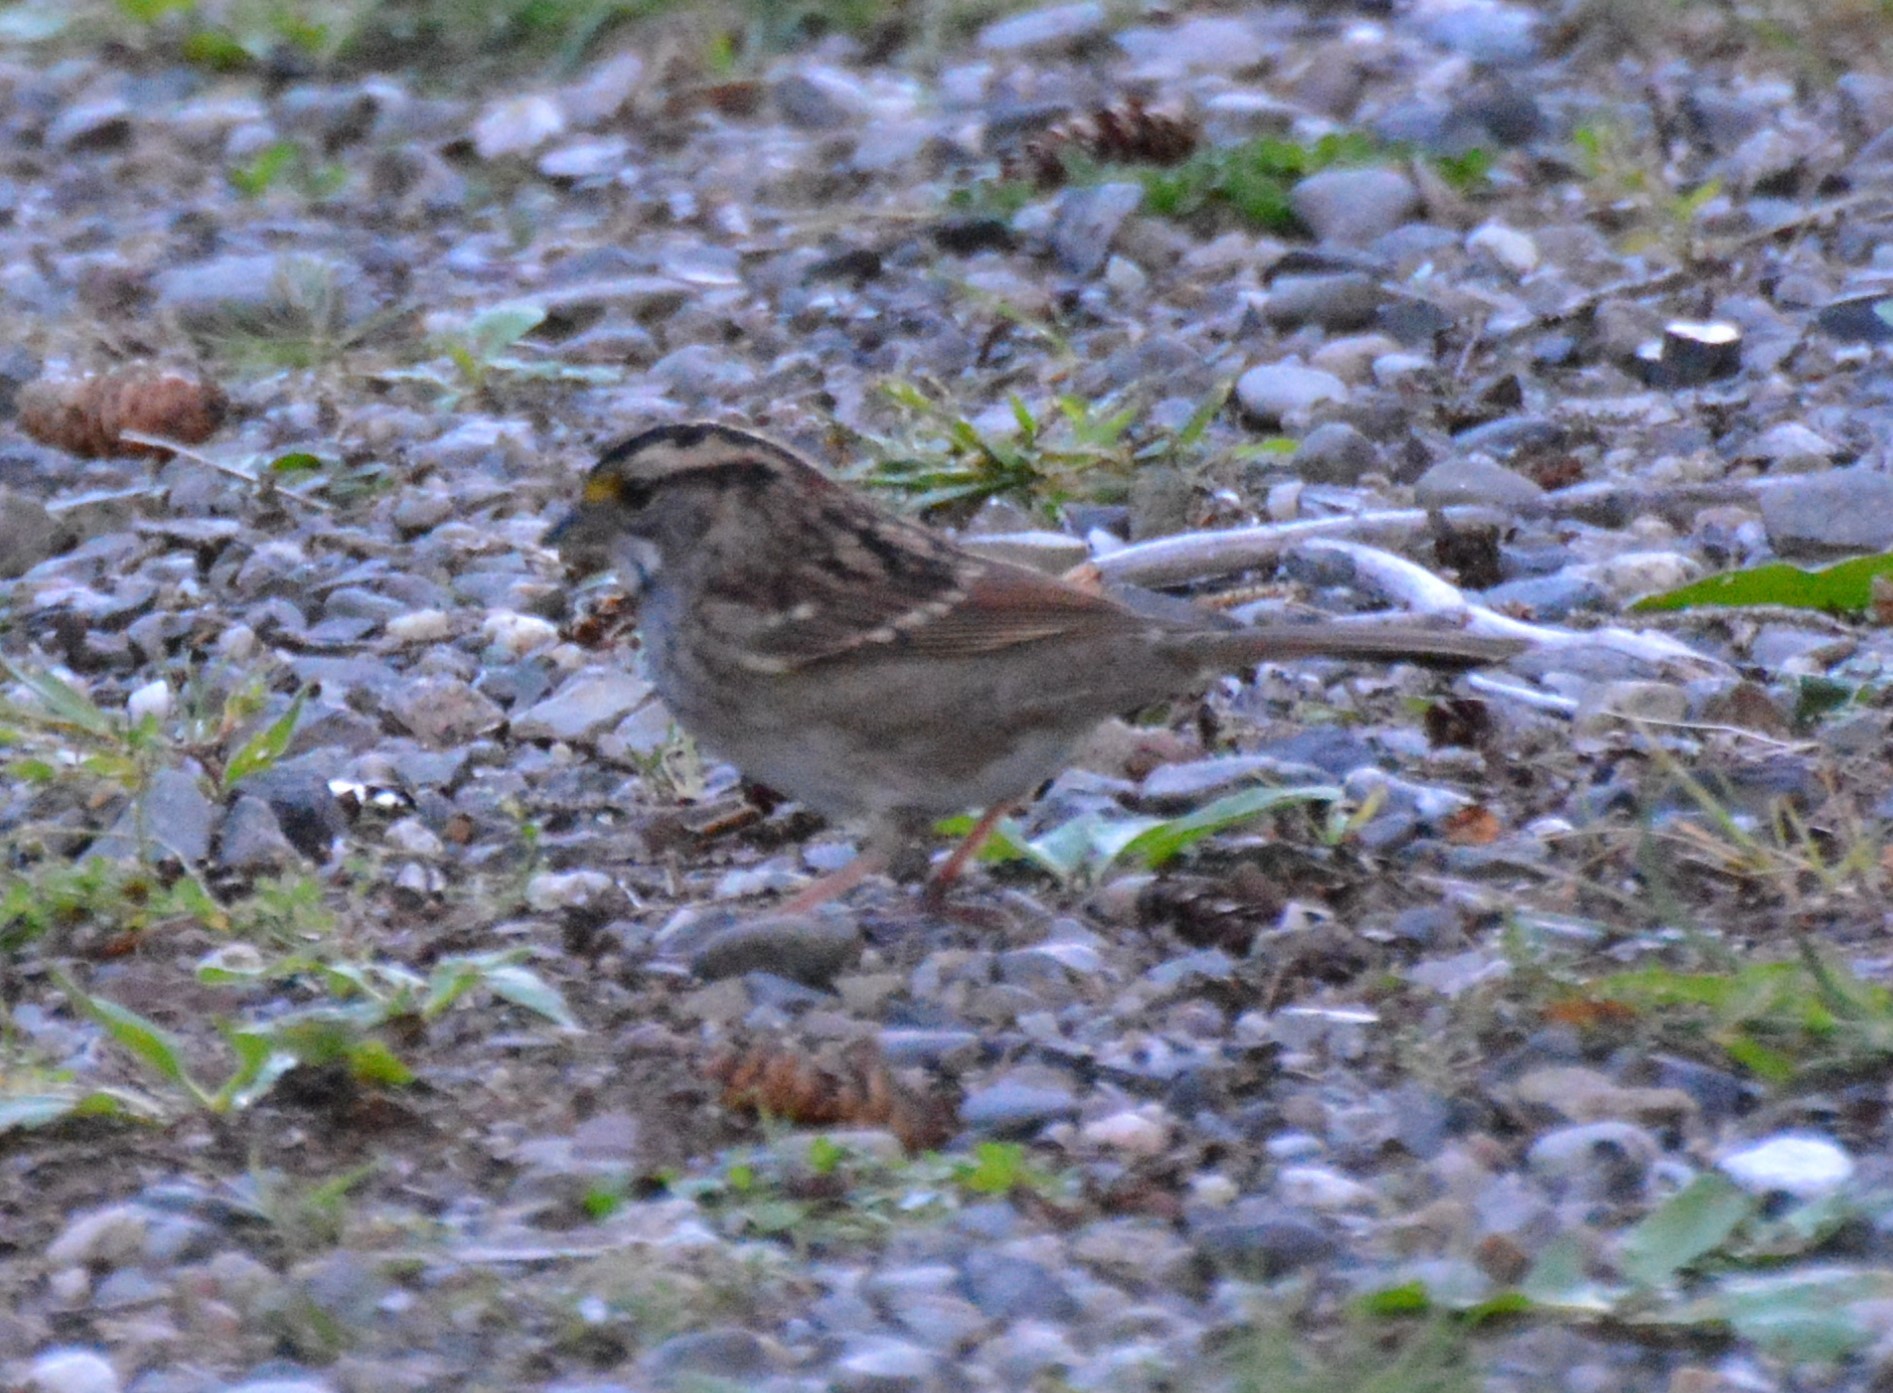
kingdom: Animalia
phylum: Chordata
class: Aves
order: Passeriformes
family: Passerellidae
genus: Zonotrichia
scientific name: Zonotrichia albicollis
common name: White-throated sparrow
